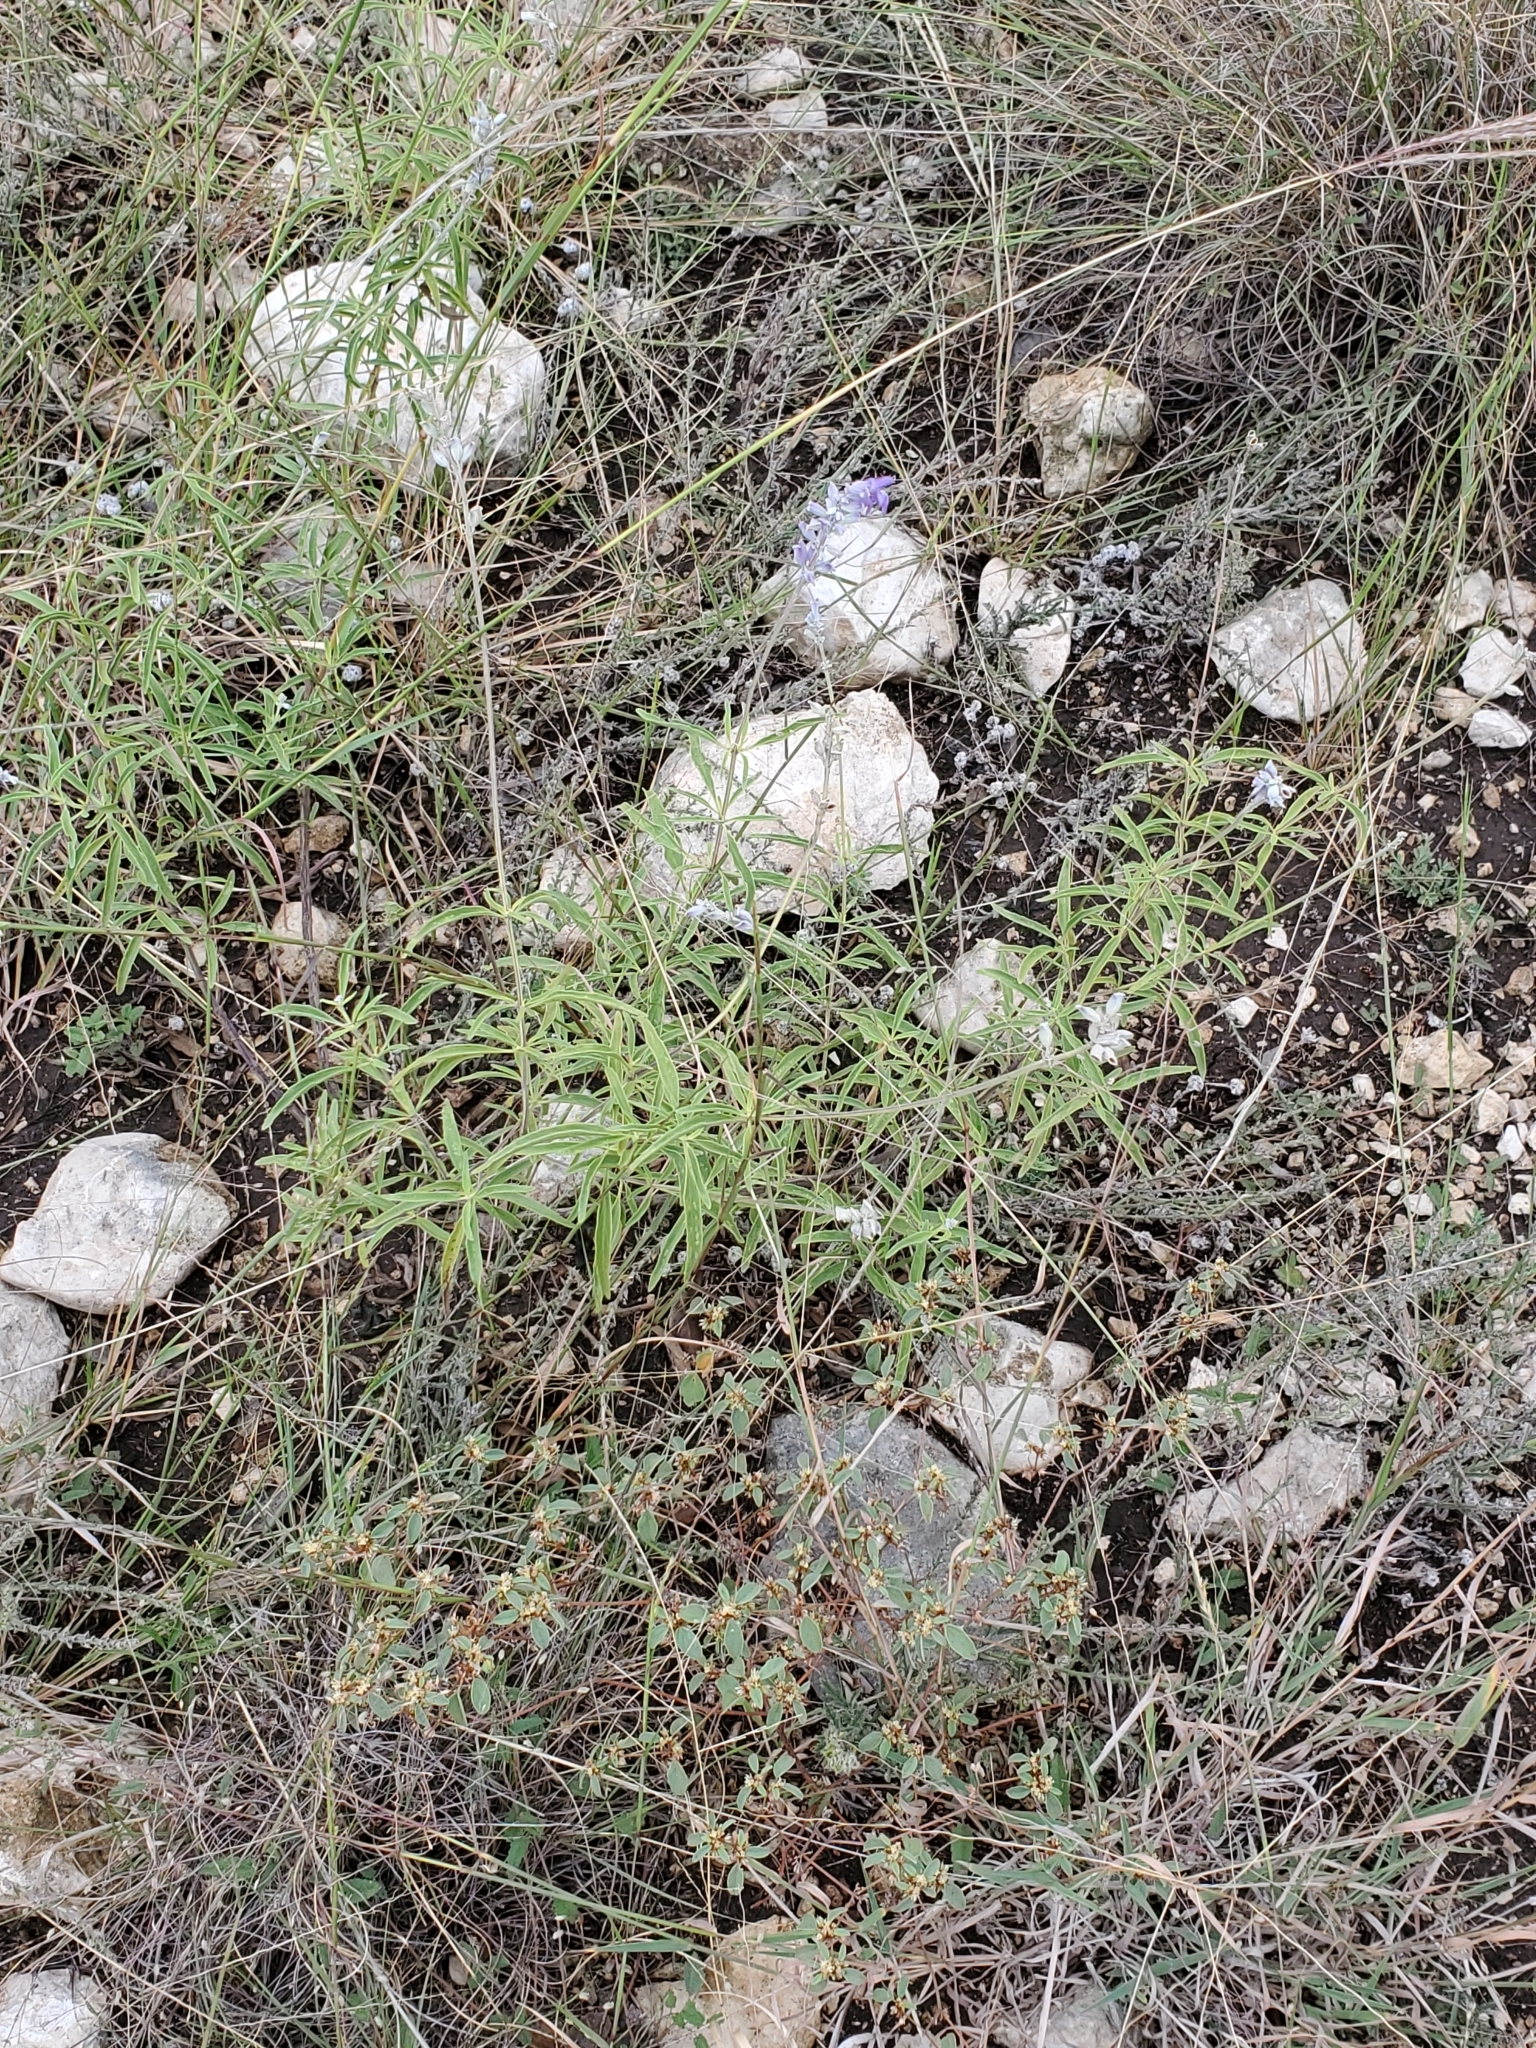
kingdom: Plantae
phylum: Tracheophyta
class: Magnoliopsida
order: Lamiales
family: Lamiaceae
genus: Salvia
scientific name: Salvia farinacea
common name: Mealy sage
